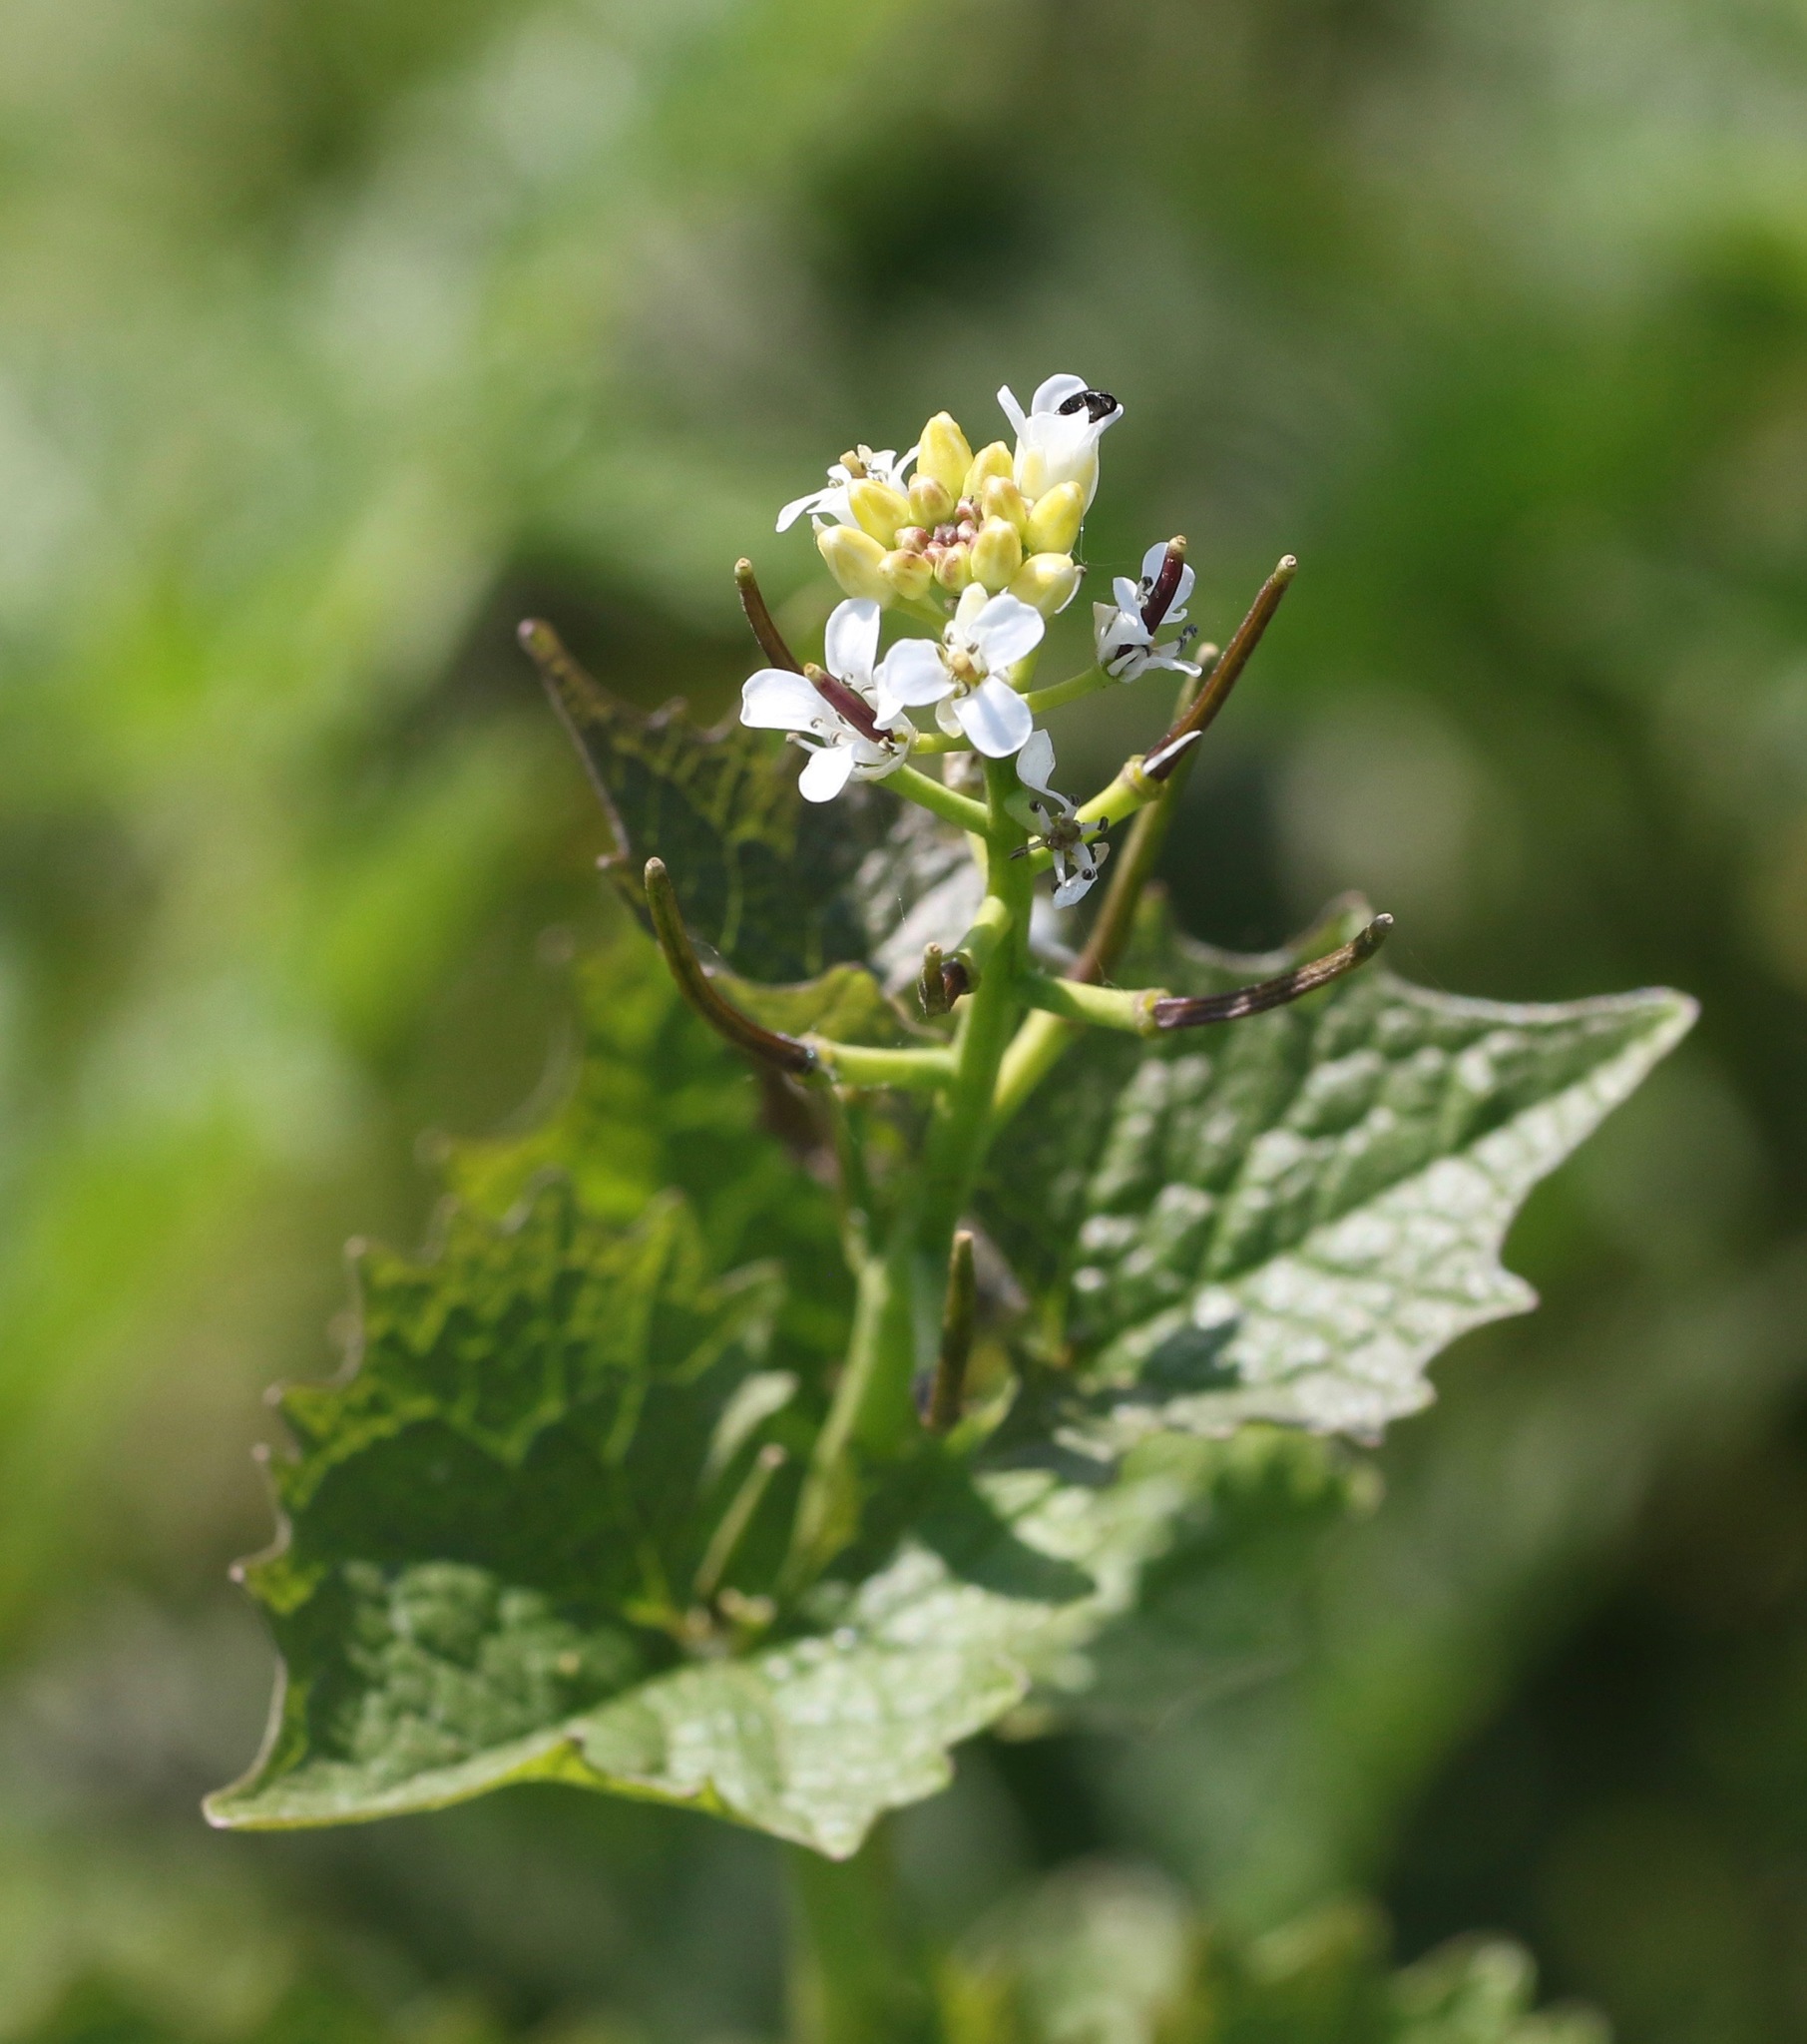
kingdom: Plantae
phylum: Tracheophyta
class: Magnoliopsida
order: Brassicales
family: Brassicaceae
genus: Alliaria
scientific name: Alliaria petiolata
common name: Garlic mustard
